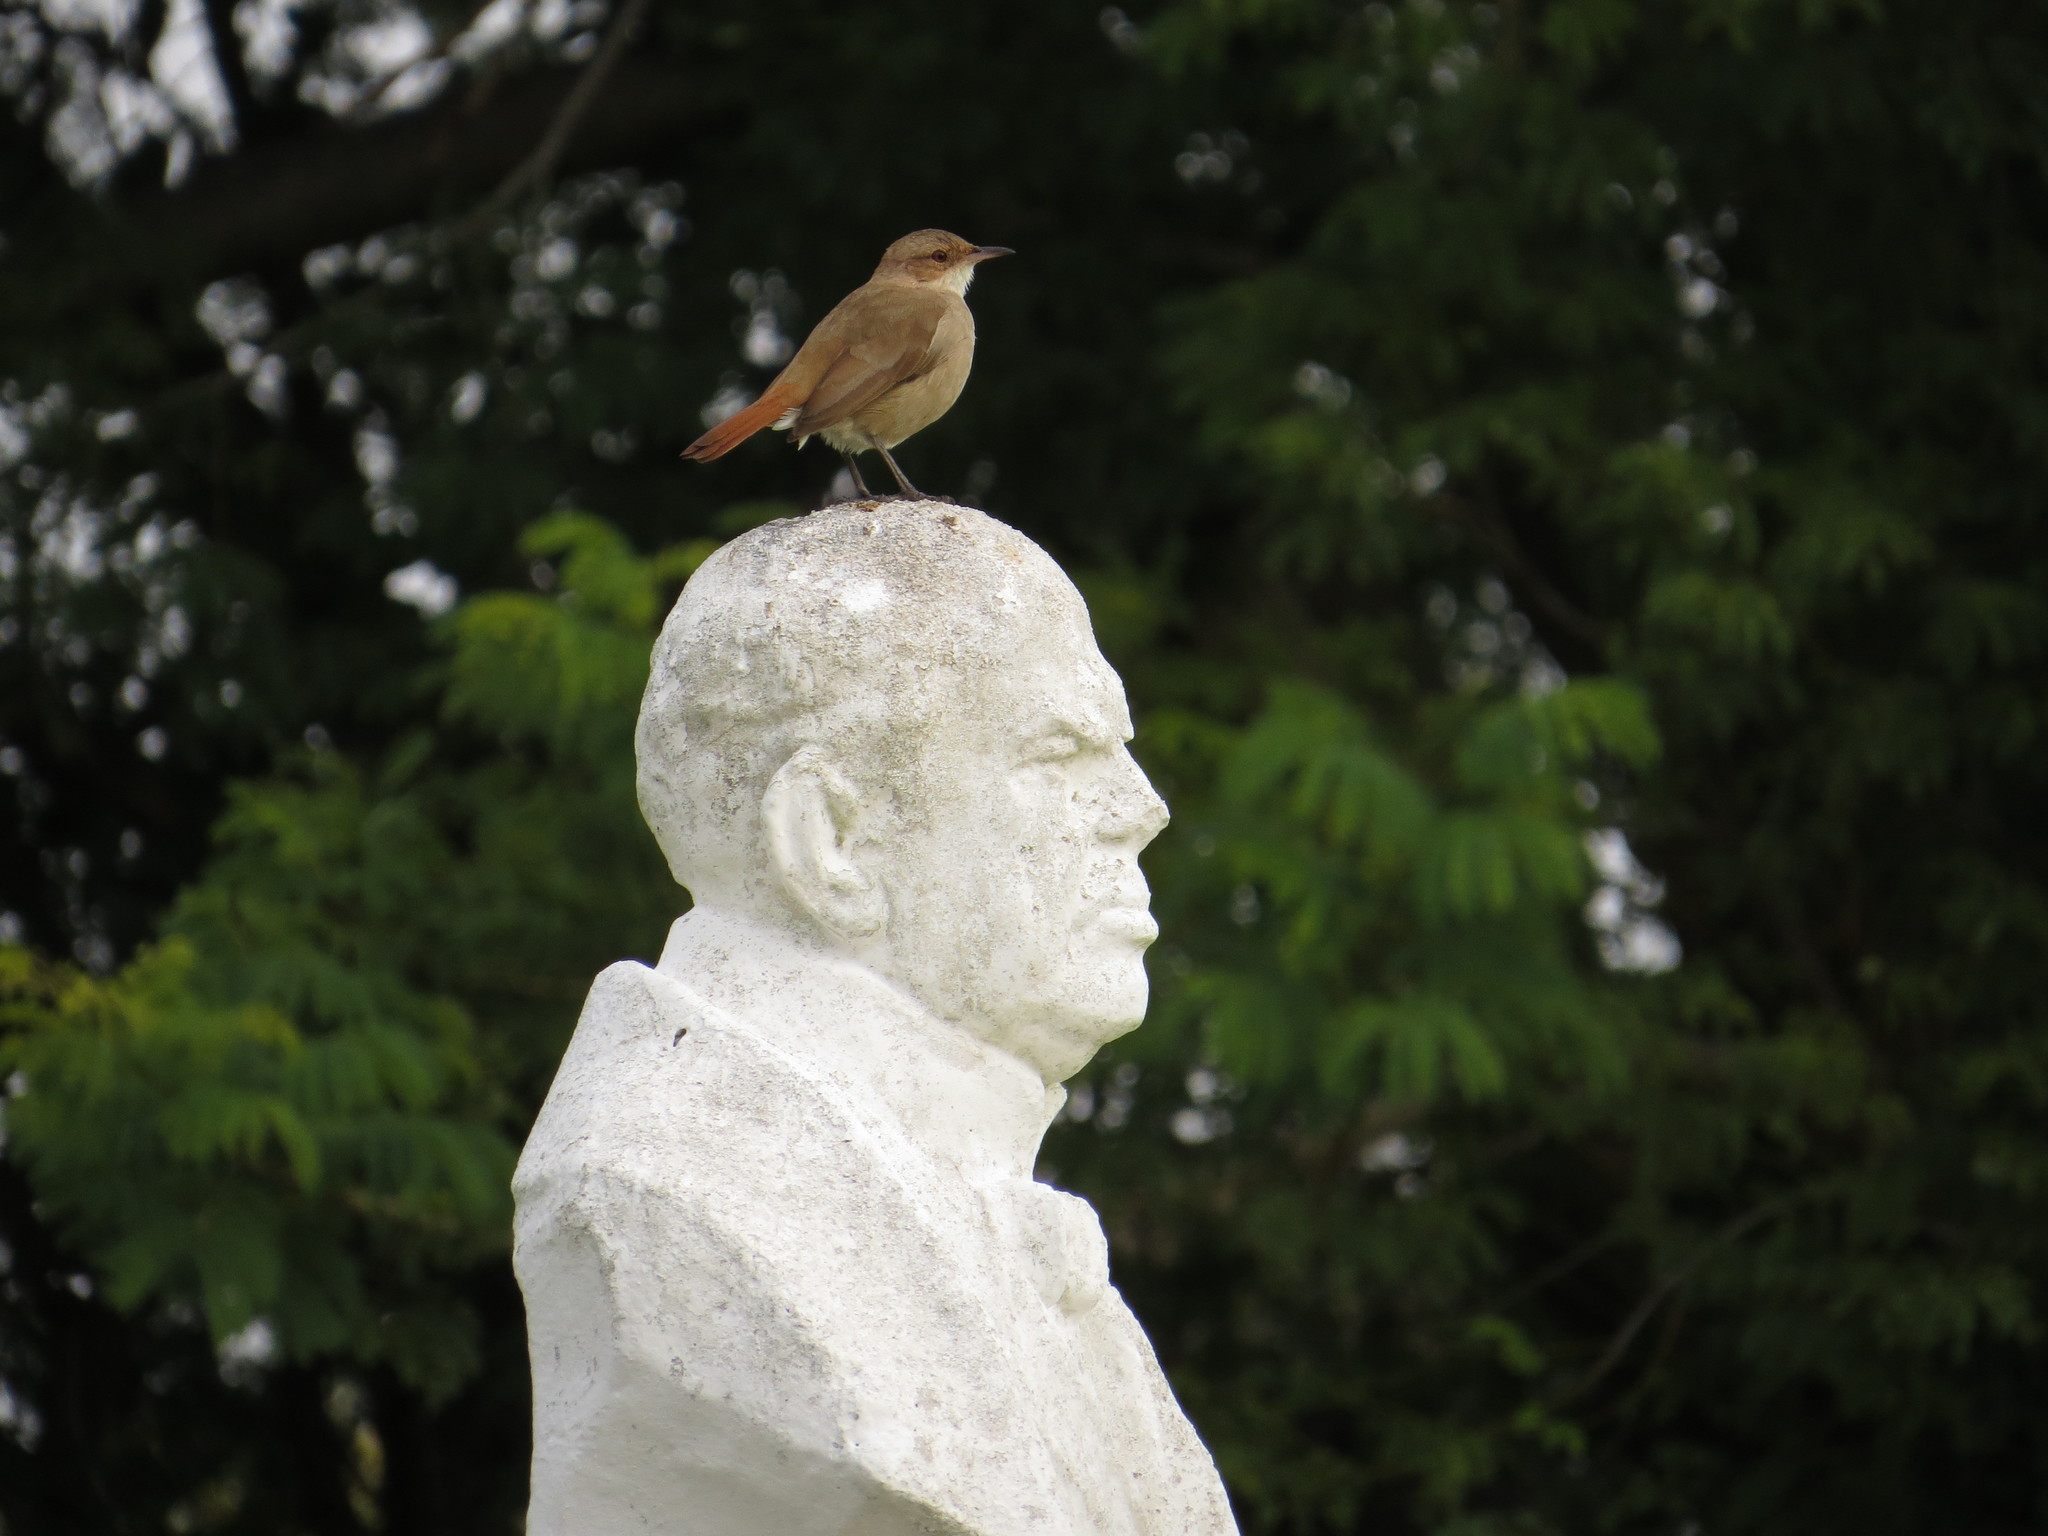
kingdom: Animalia
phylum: Chordata
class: Aves
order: Passeriformes
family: Furnariidae
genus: Furnarius
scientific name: Furnarius rufus
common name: Rufous hornero
